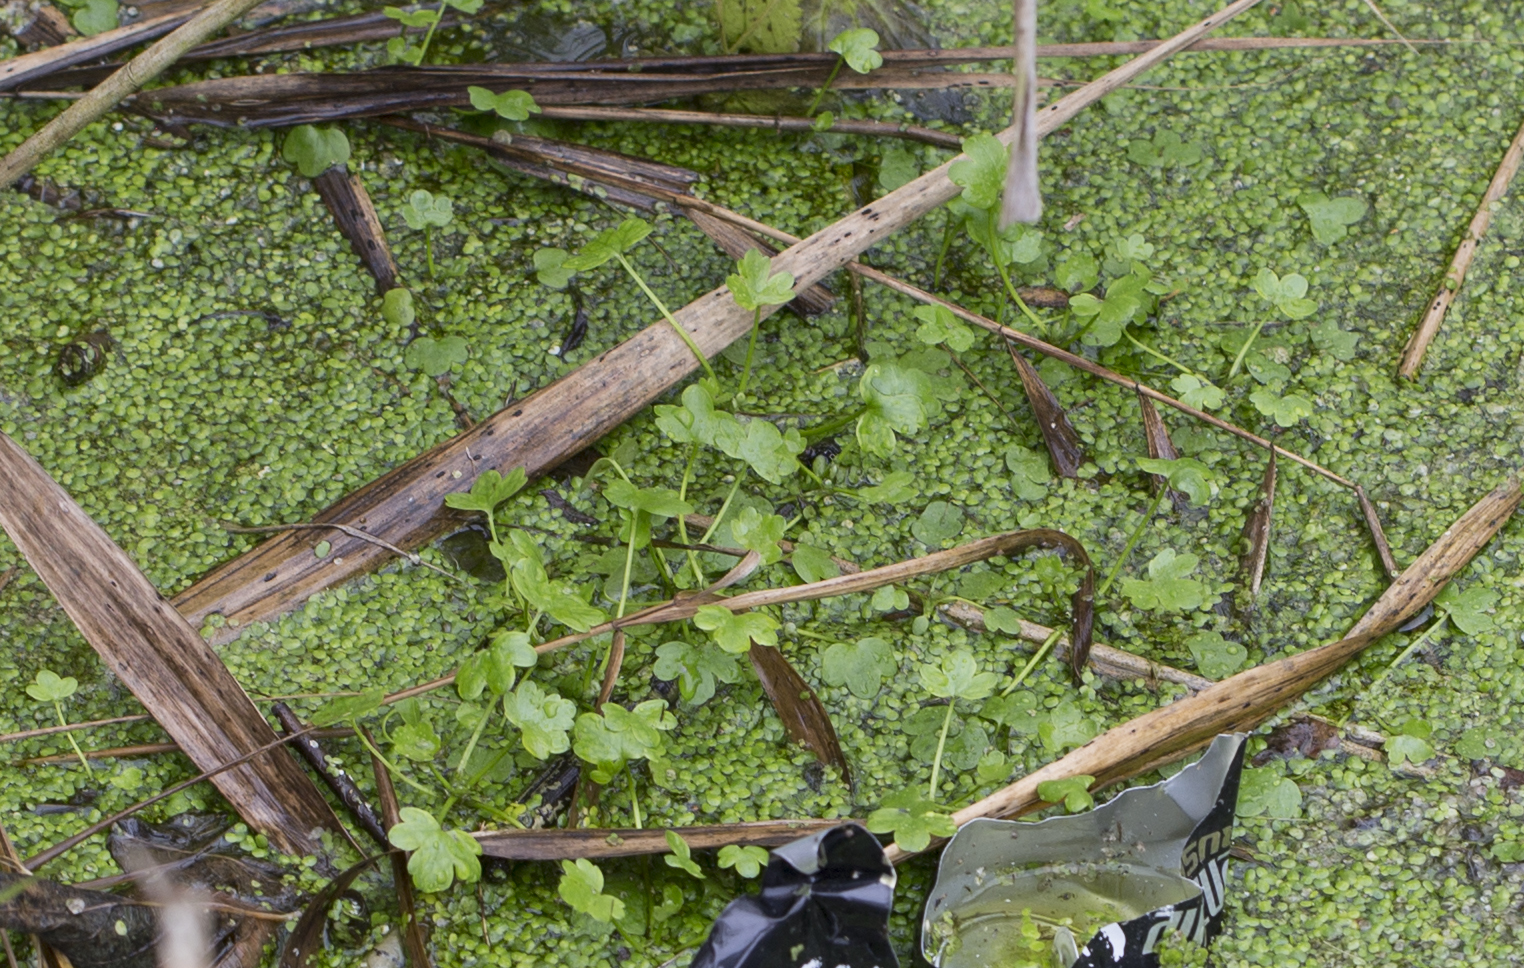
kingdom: Plantae
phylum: Tracheophyta
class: Magnoliopsida
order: Ranunculales
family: Ranunculaceae
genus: Ranunculus
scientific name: Ranunculus sceleratus
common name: Celery-leaved buttercup
